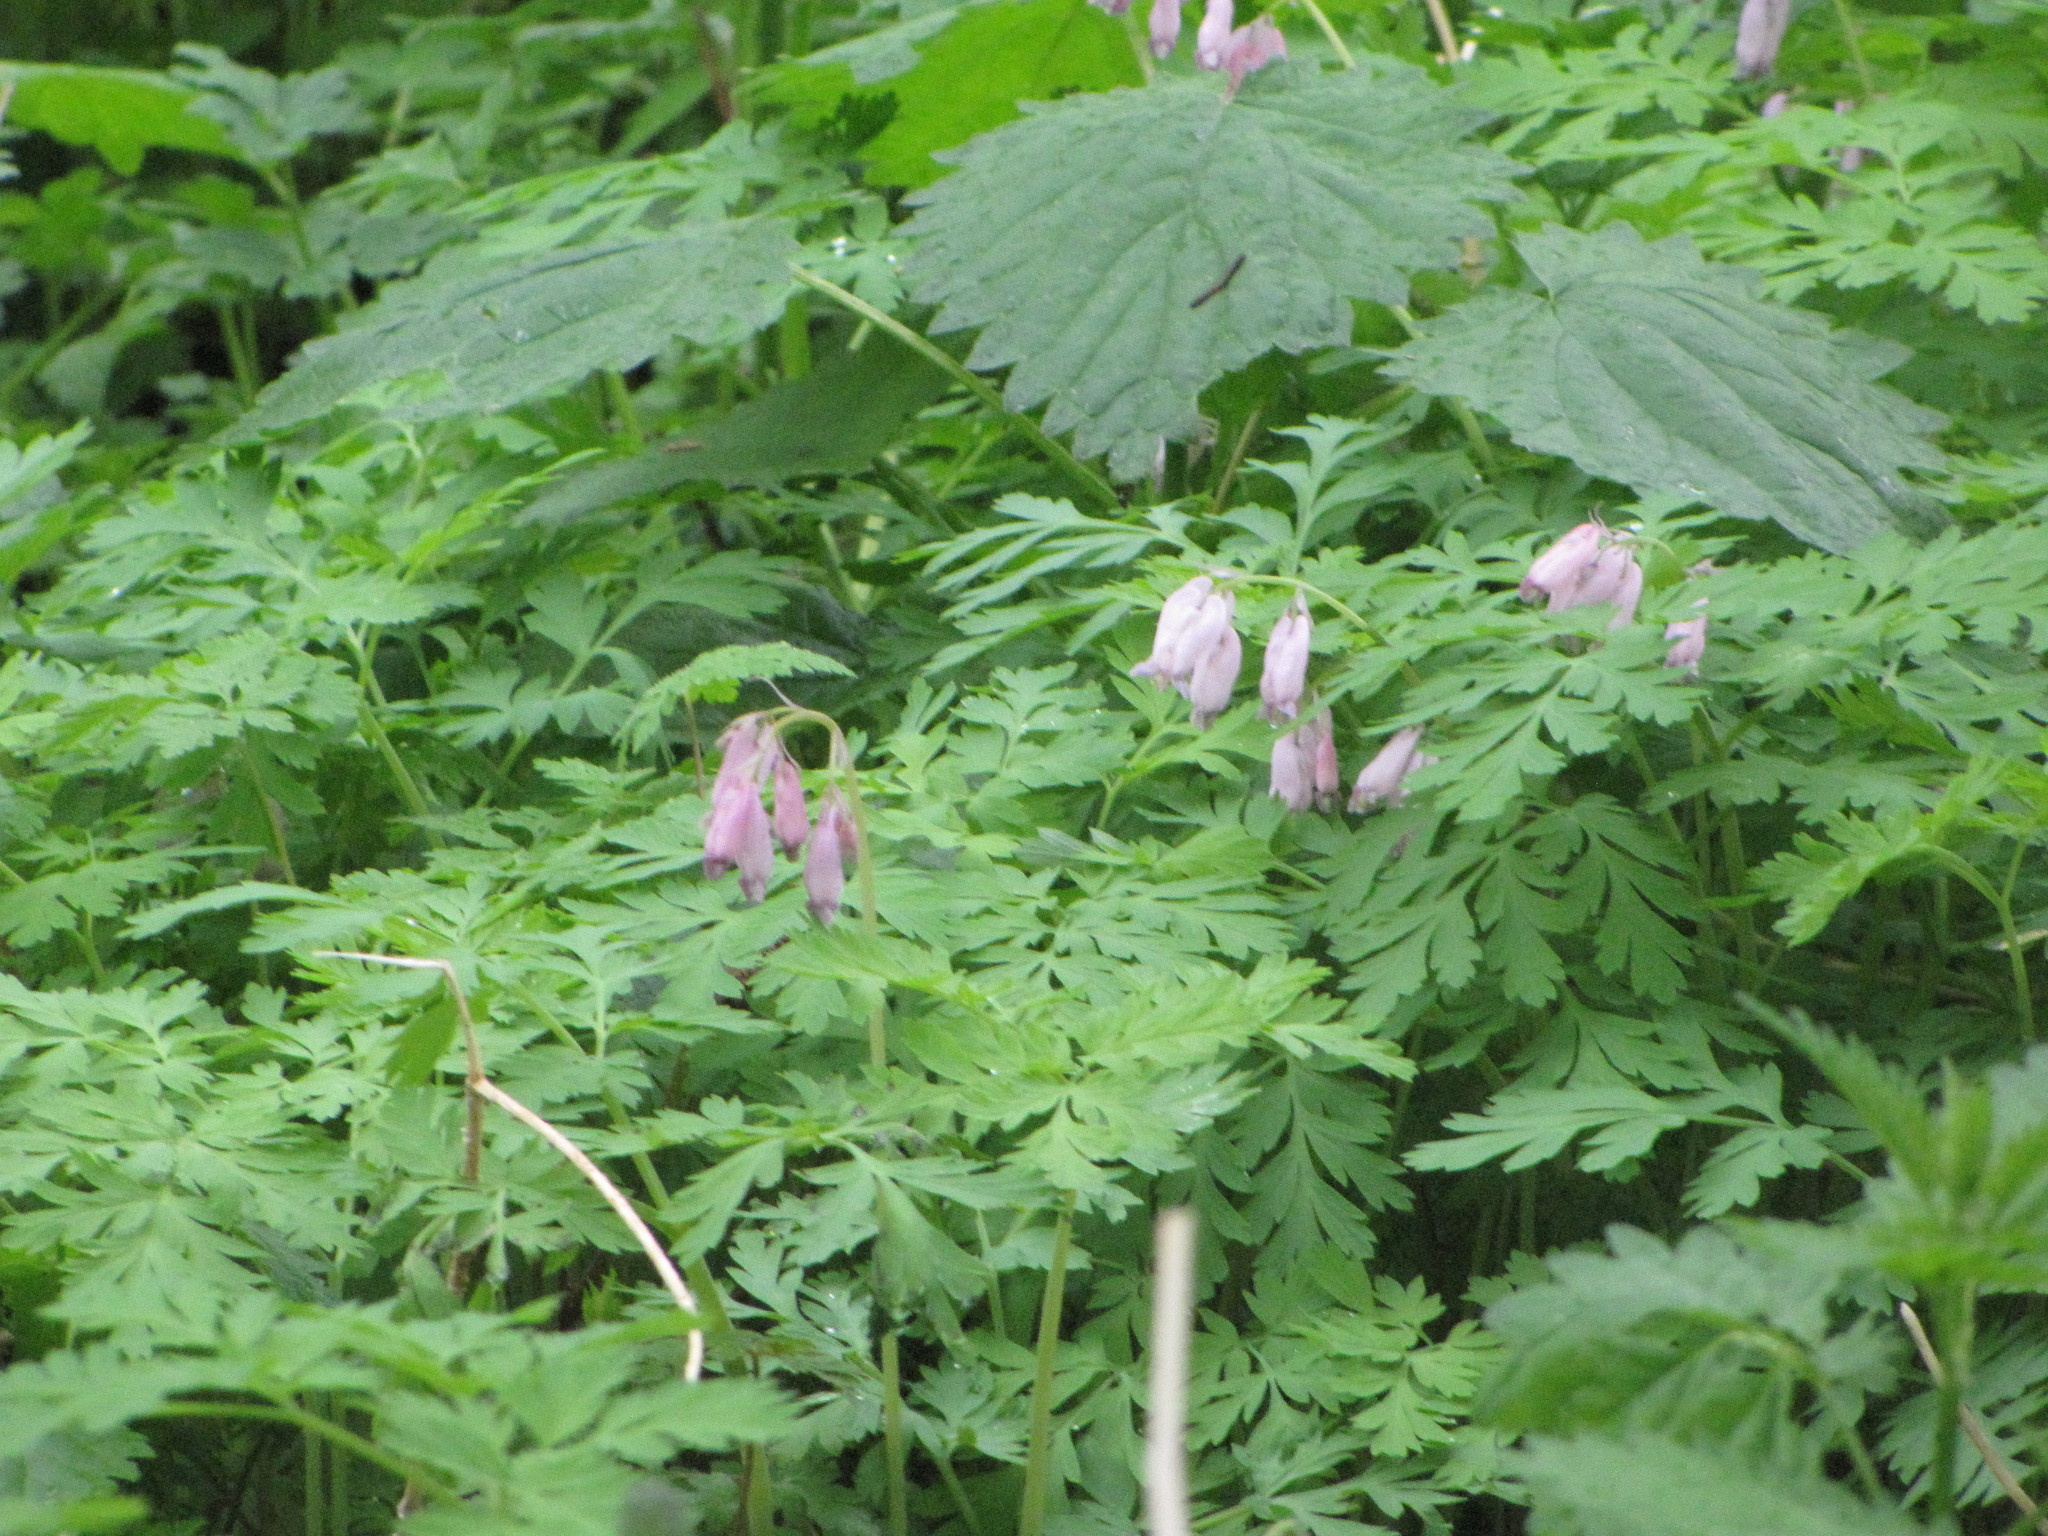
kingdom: Plantae
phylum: Tracheophyta
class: Magnoliopsida
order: Ranunculales
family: Papaveraceae
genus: Dicentra
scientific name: Dicentra formosa
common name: Bleeding-heart
